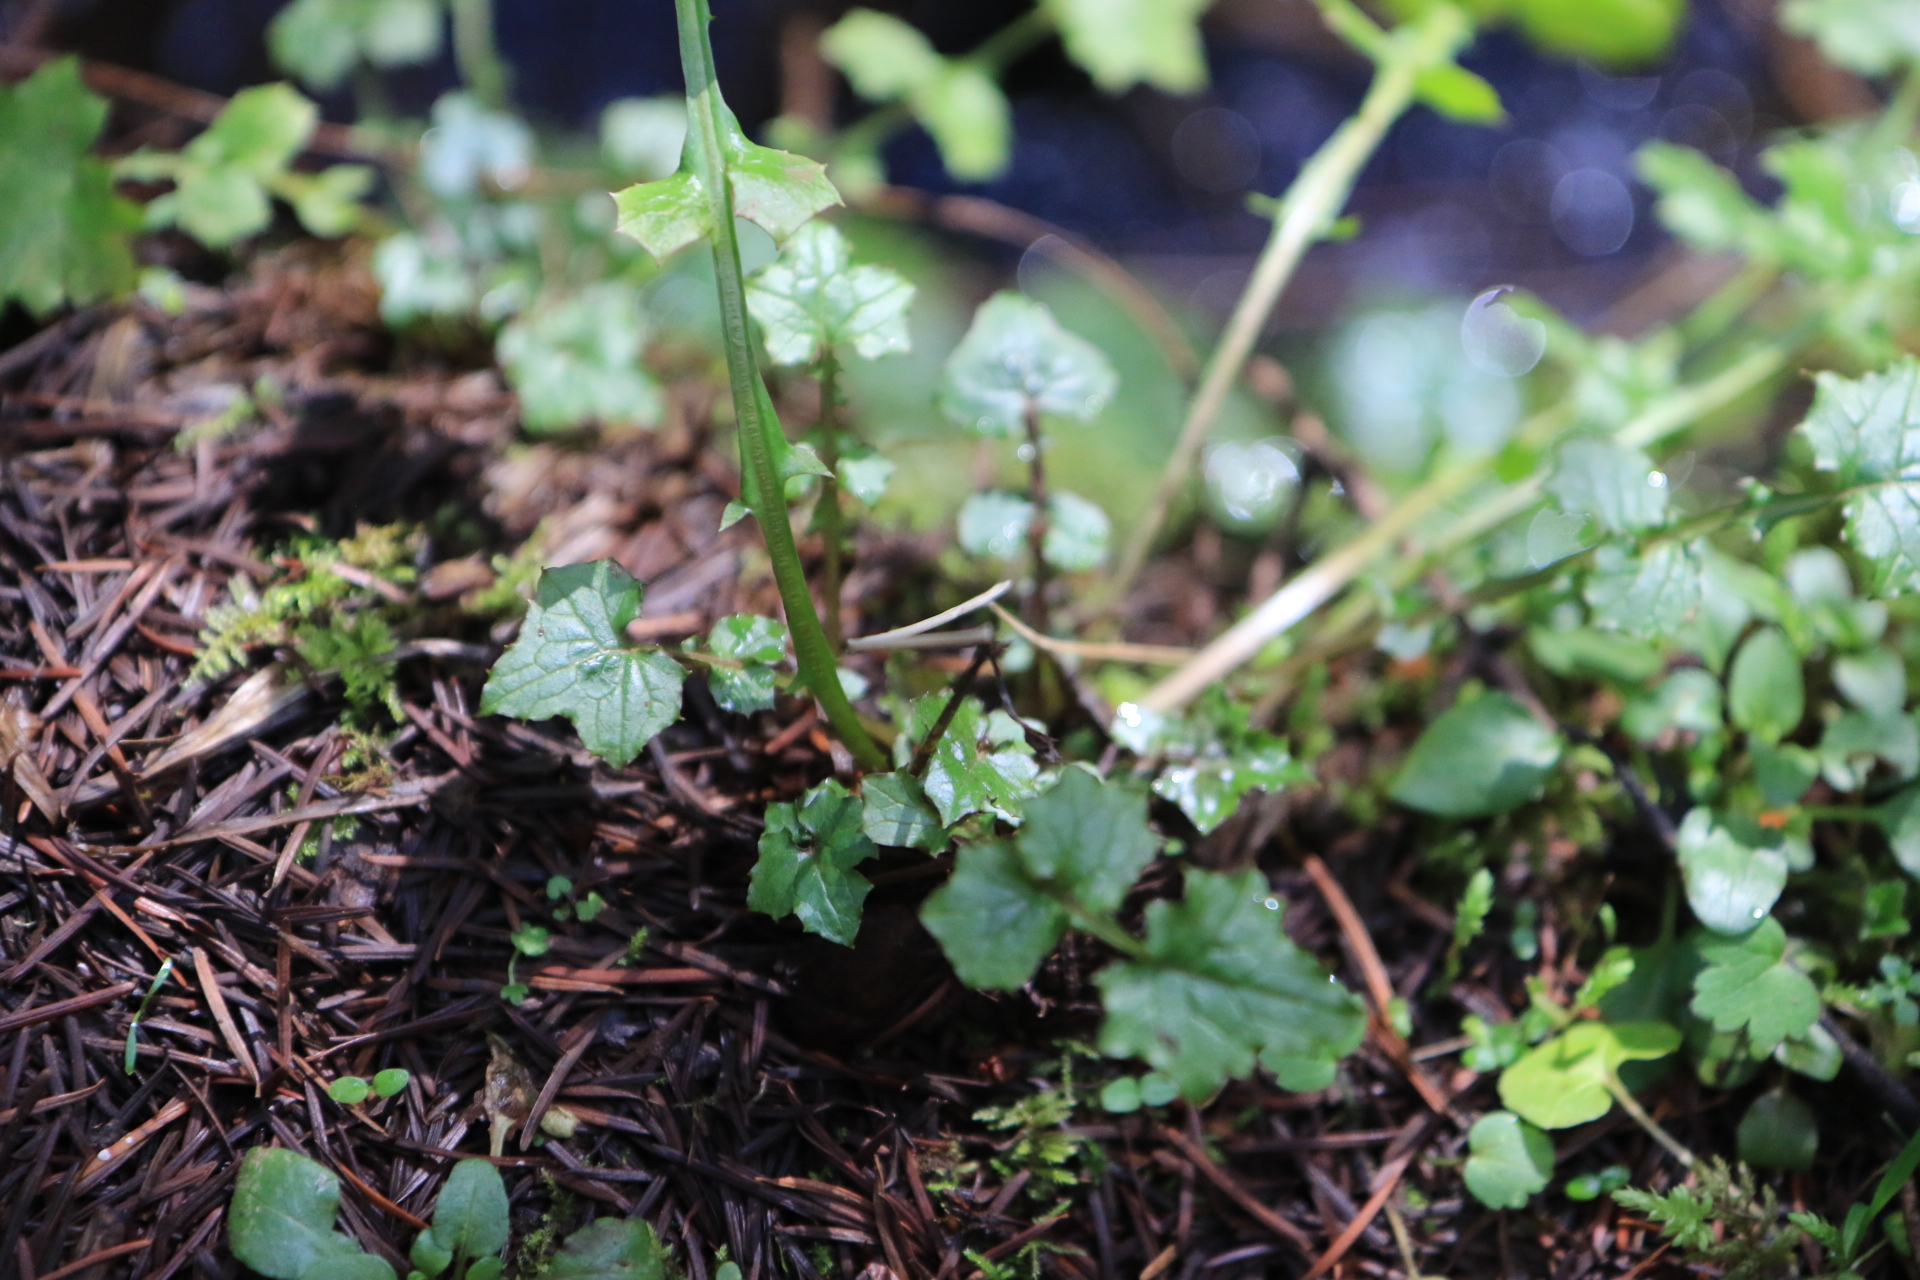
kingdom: Plantae
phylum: Tracheophyta
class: Magnoliopsida
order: Asterales
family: Asteraceae
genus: Mycelis
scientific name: Mycelis muralis
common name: Wall lettuce
